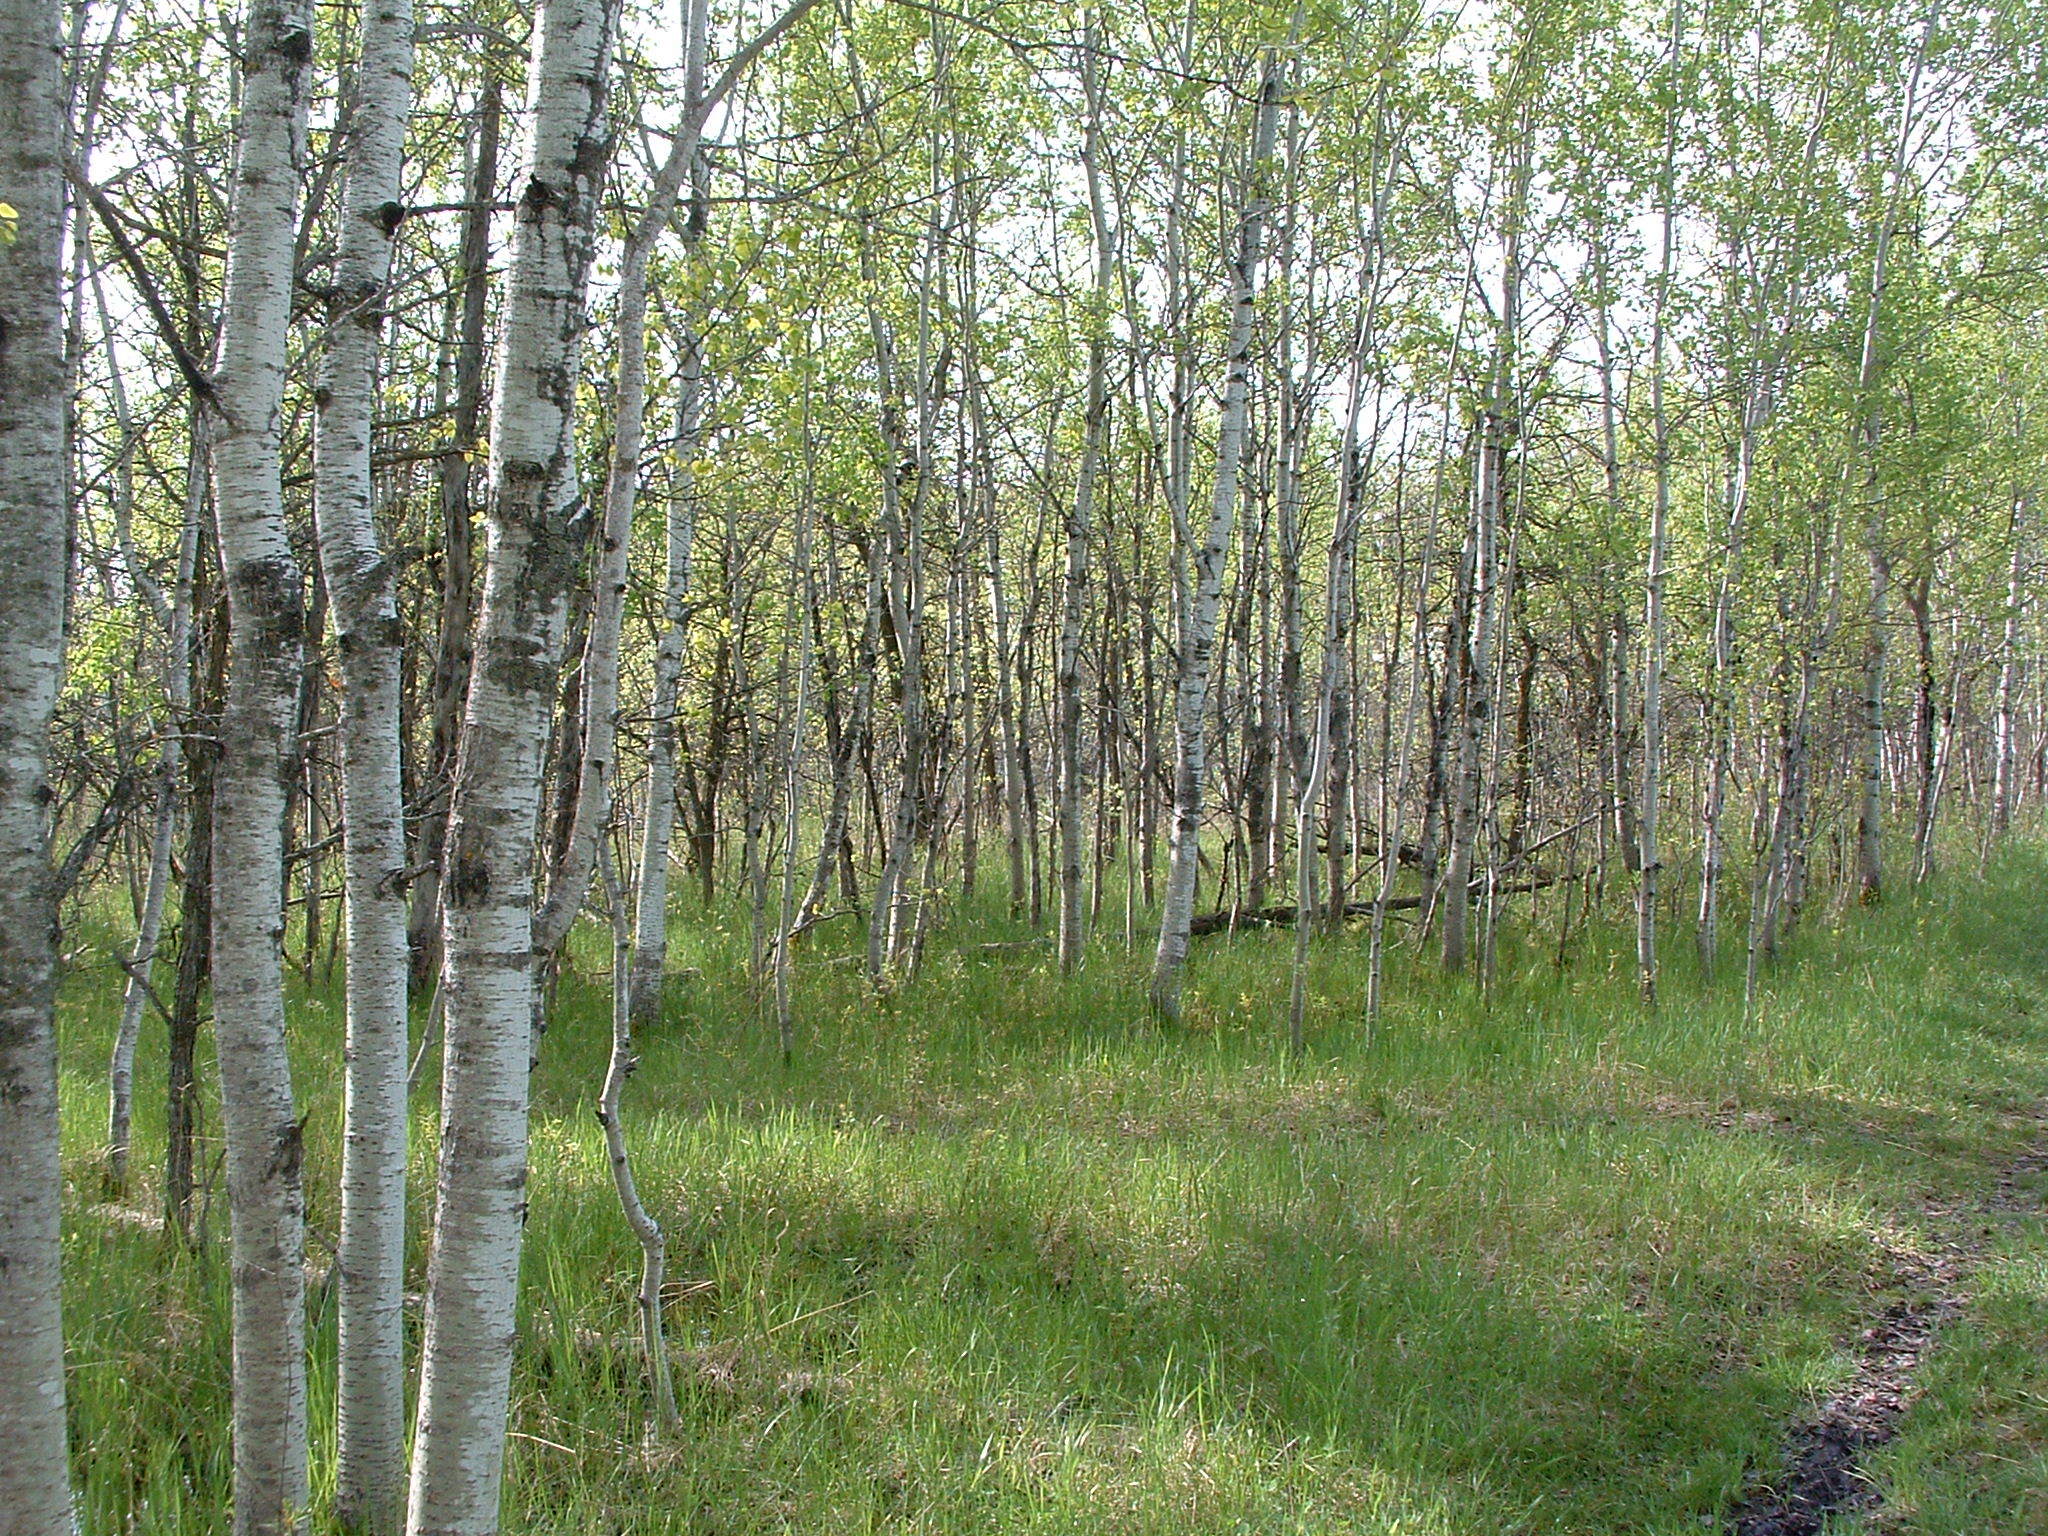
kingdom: Plantae
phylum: Tracheophyta
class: Magnoliopsida
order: Malpighiales
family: Salicaceae
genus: Populus
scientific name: Populus tremuloides
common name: Quaking aspen
